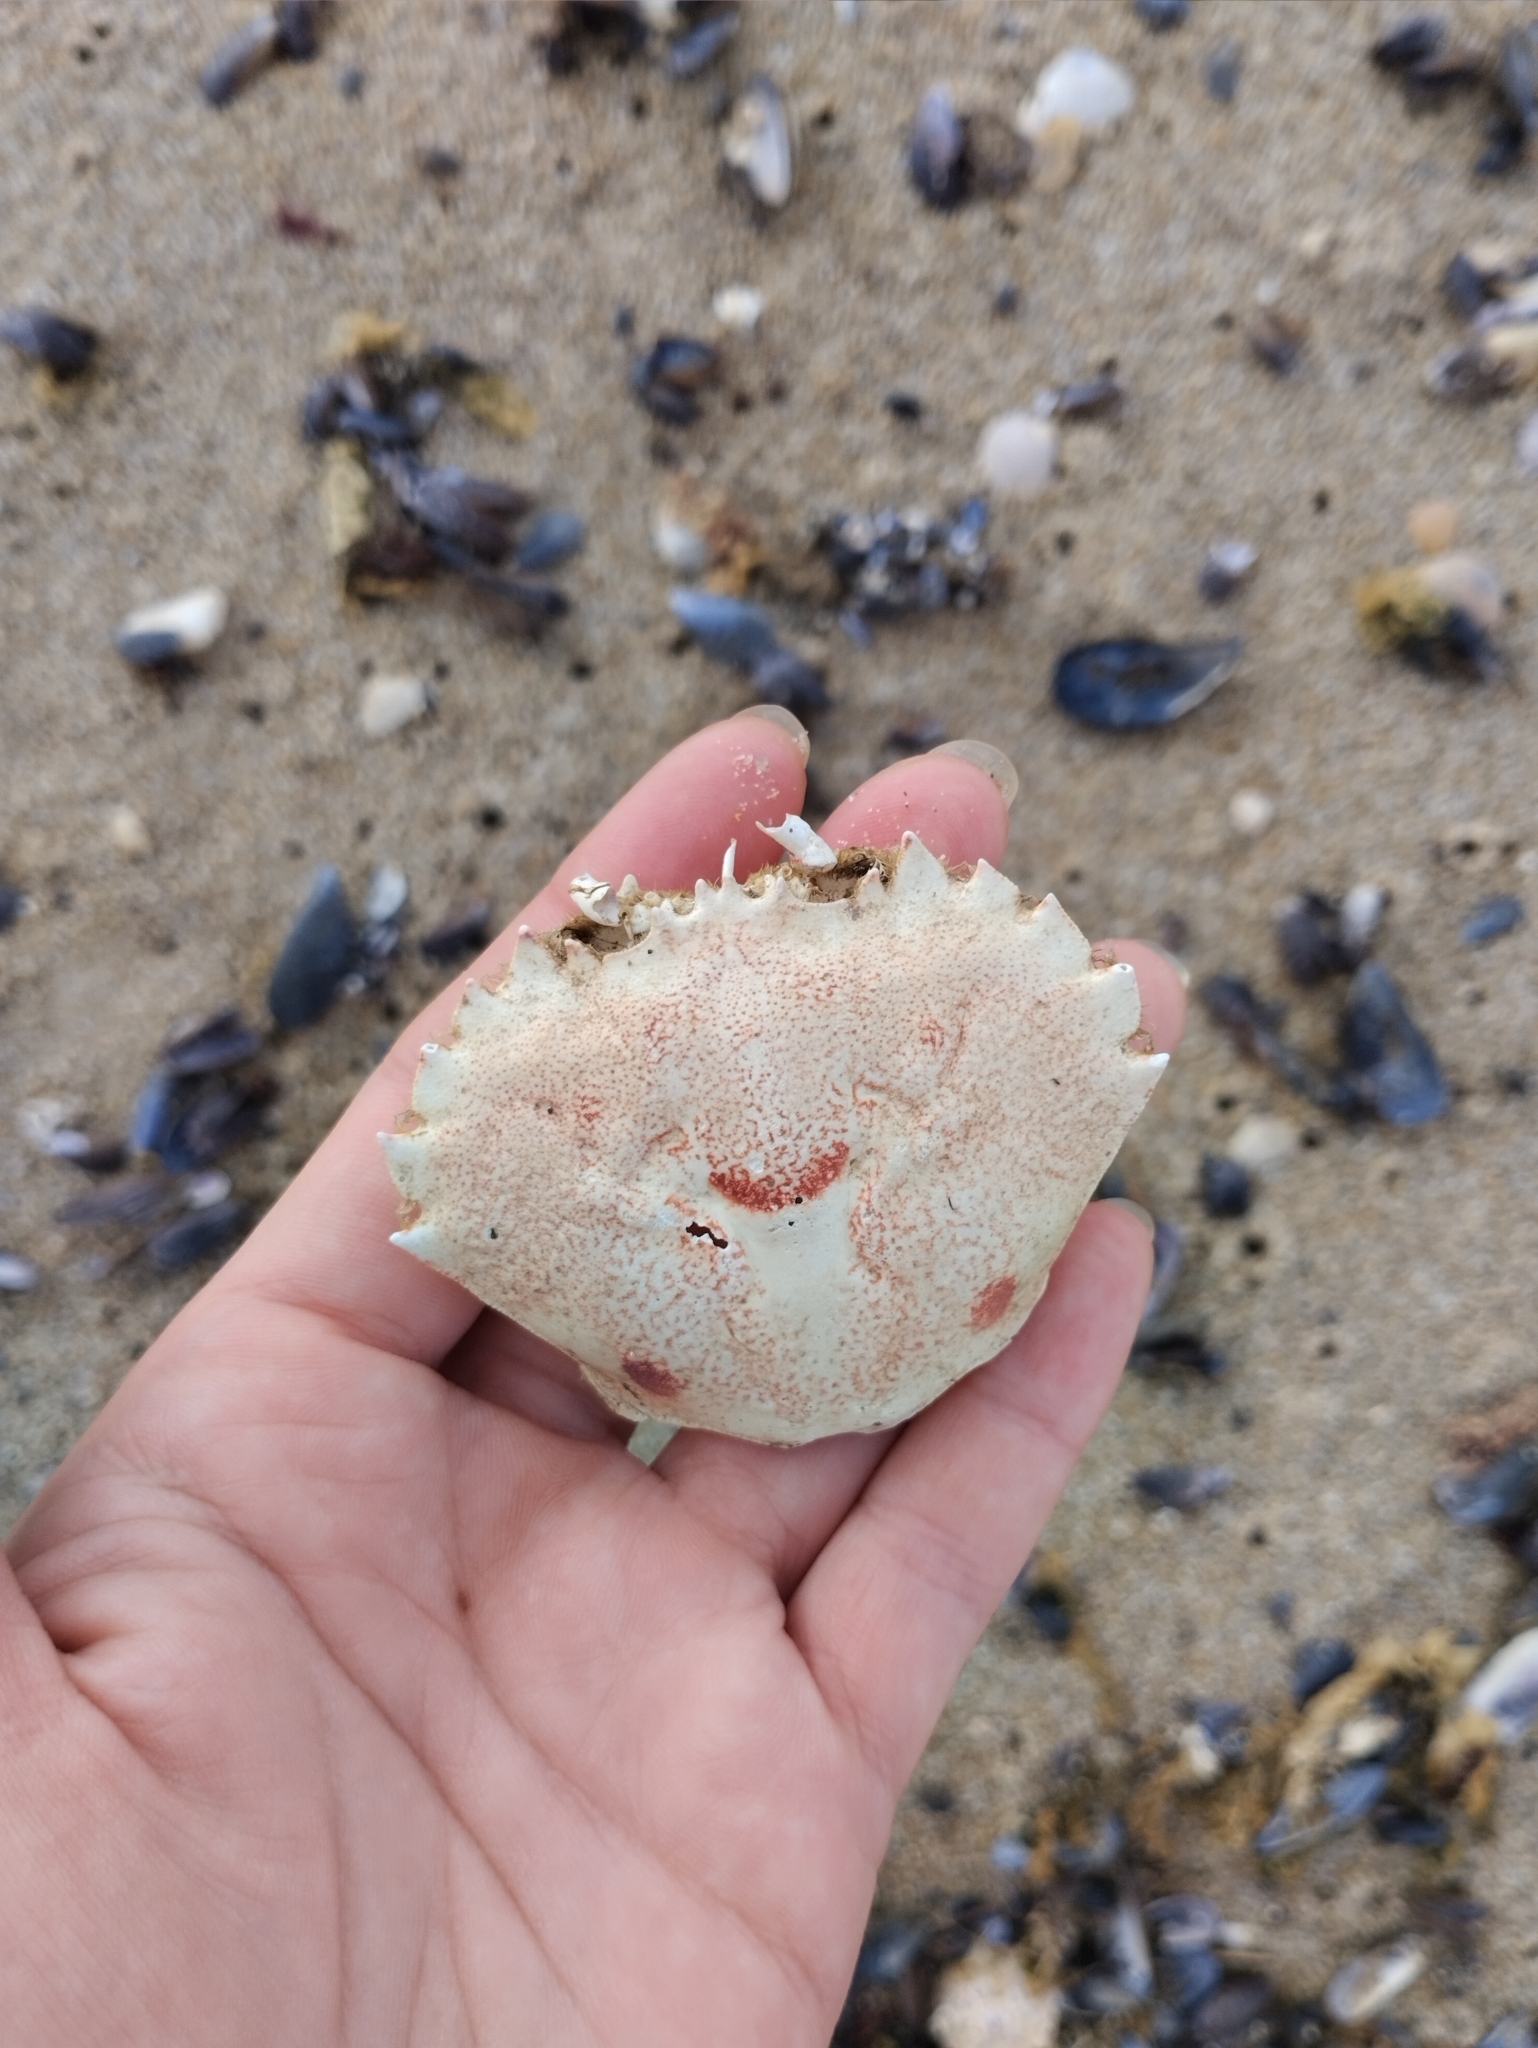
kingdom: Animalia
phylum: Arthropoda
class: Malacostraca
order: Decapoda
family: Ovalipidae
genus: Ovalipes
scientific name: Ovalipes trimaculatus
